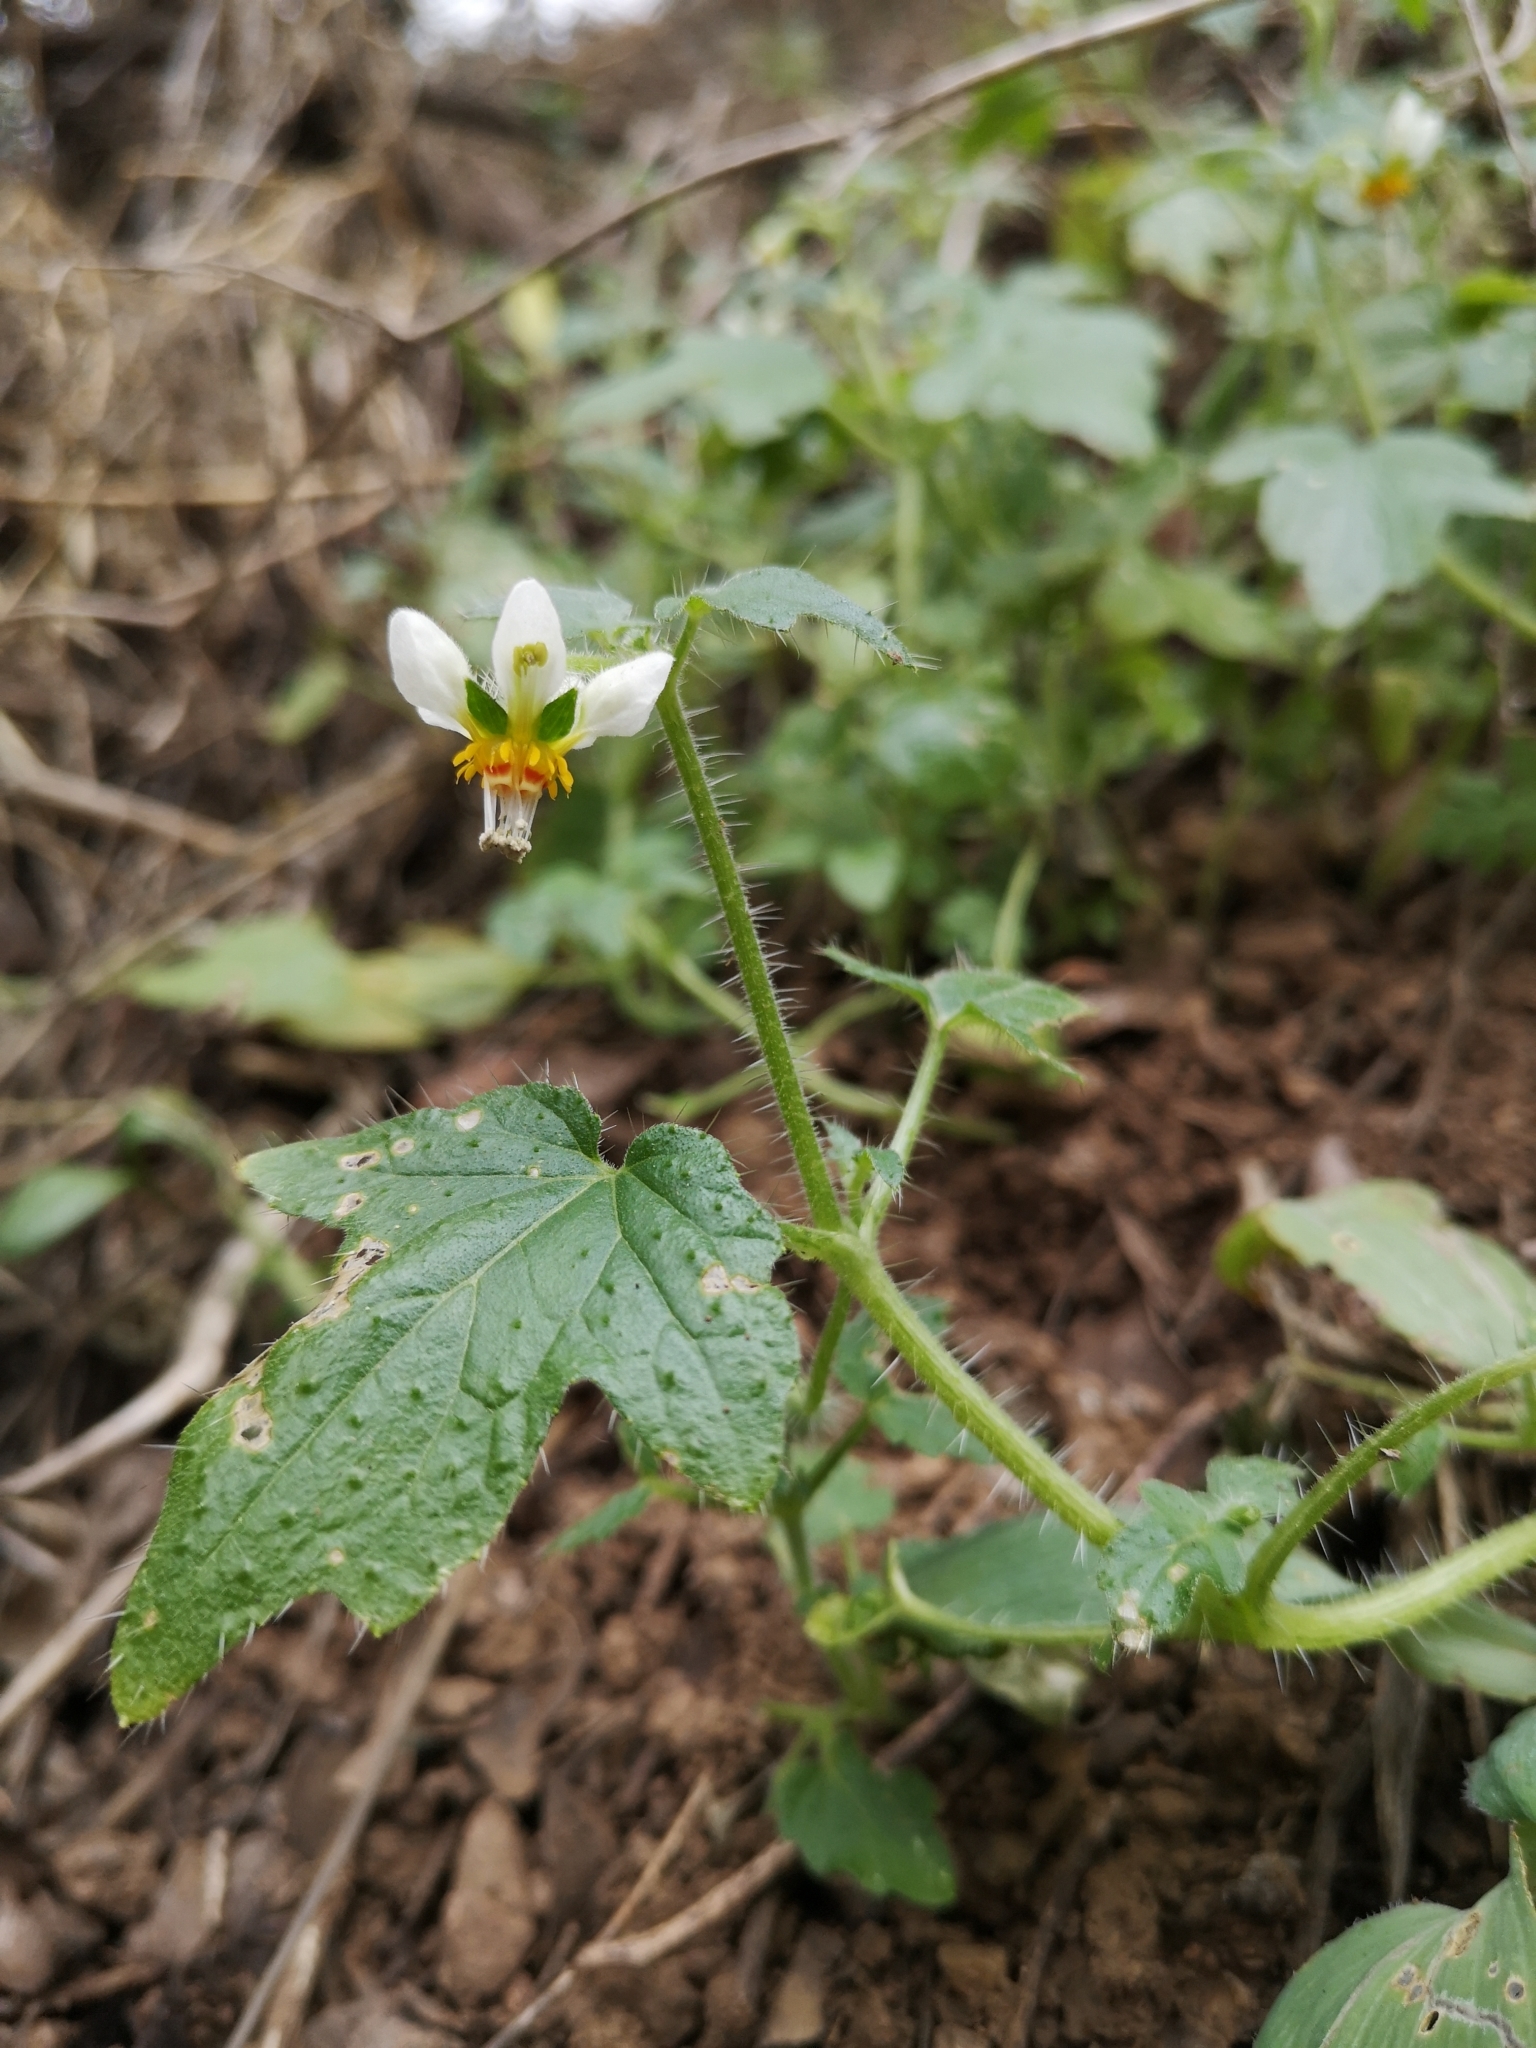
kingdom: Plantae
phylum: Tracheophyta
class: Magnoliopsida
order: Cornales
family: Loasaceae
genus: Loasa
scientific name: Loasa triloba
